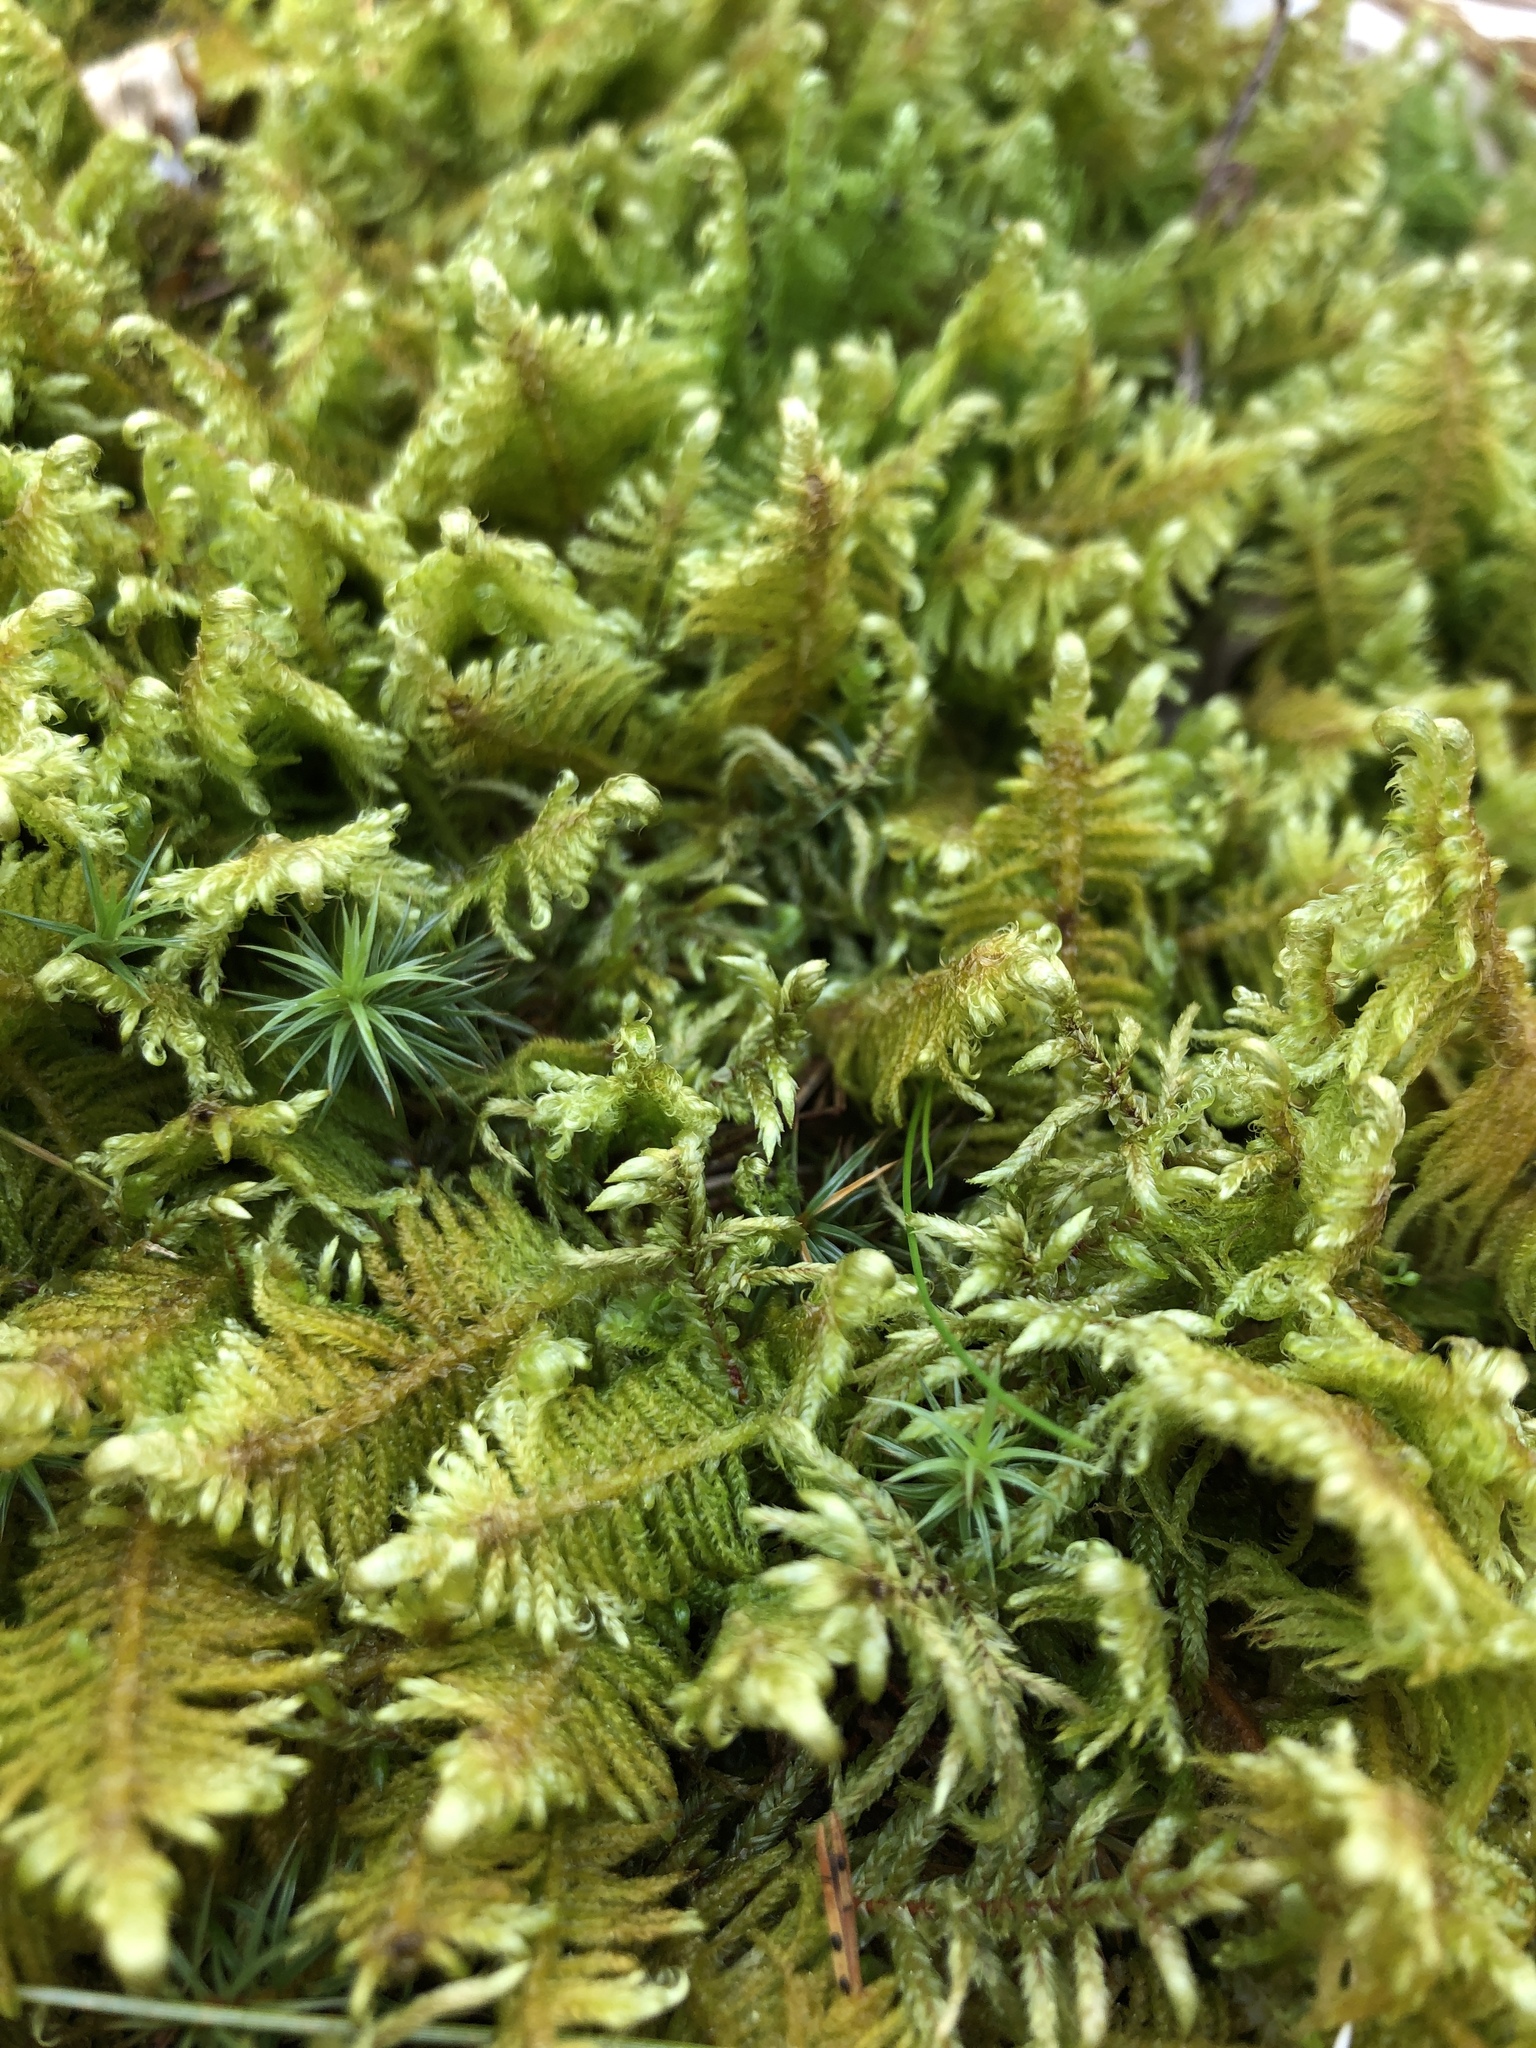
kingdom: Plantae
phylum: Bryophyta
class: Bryopsida
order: Hypnales
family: Pylaisiaceae
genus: Ptilium
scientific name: Ptilium crista-castrensis
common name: Knight's plume moss
